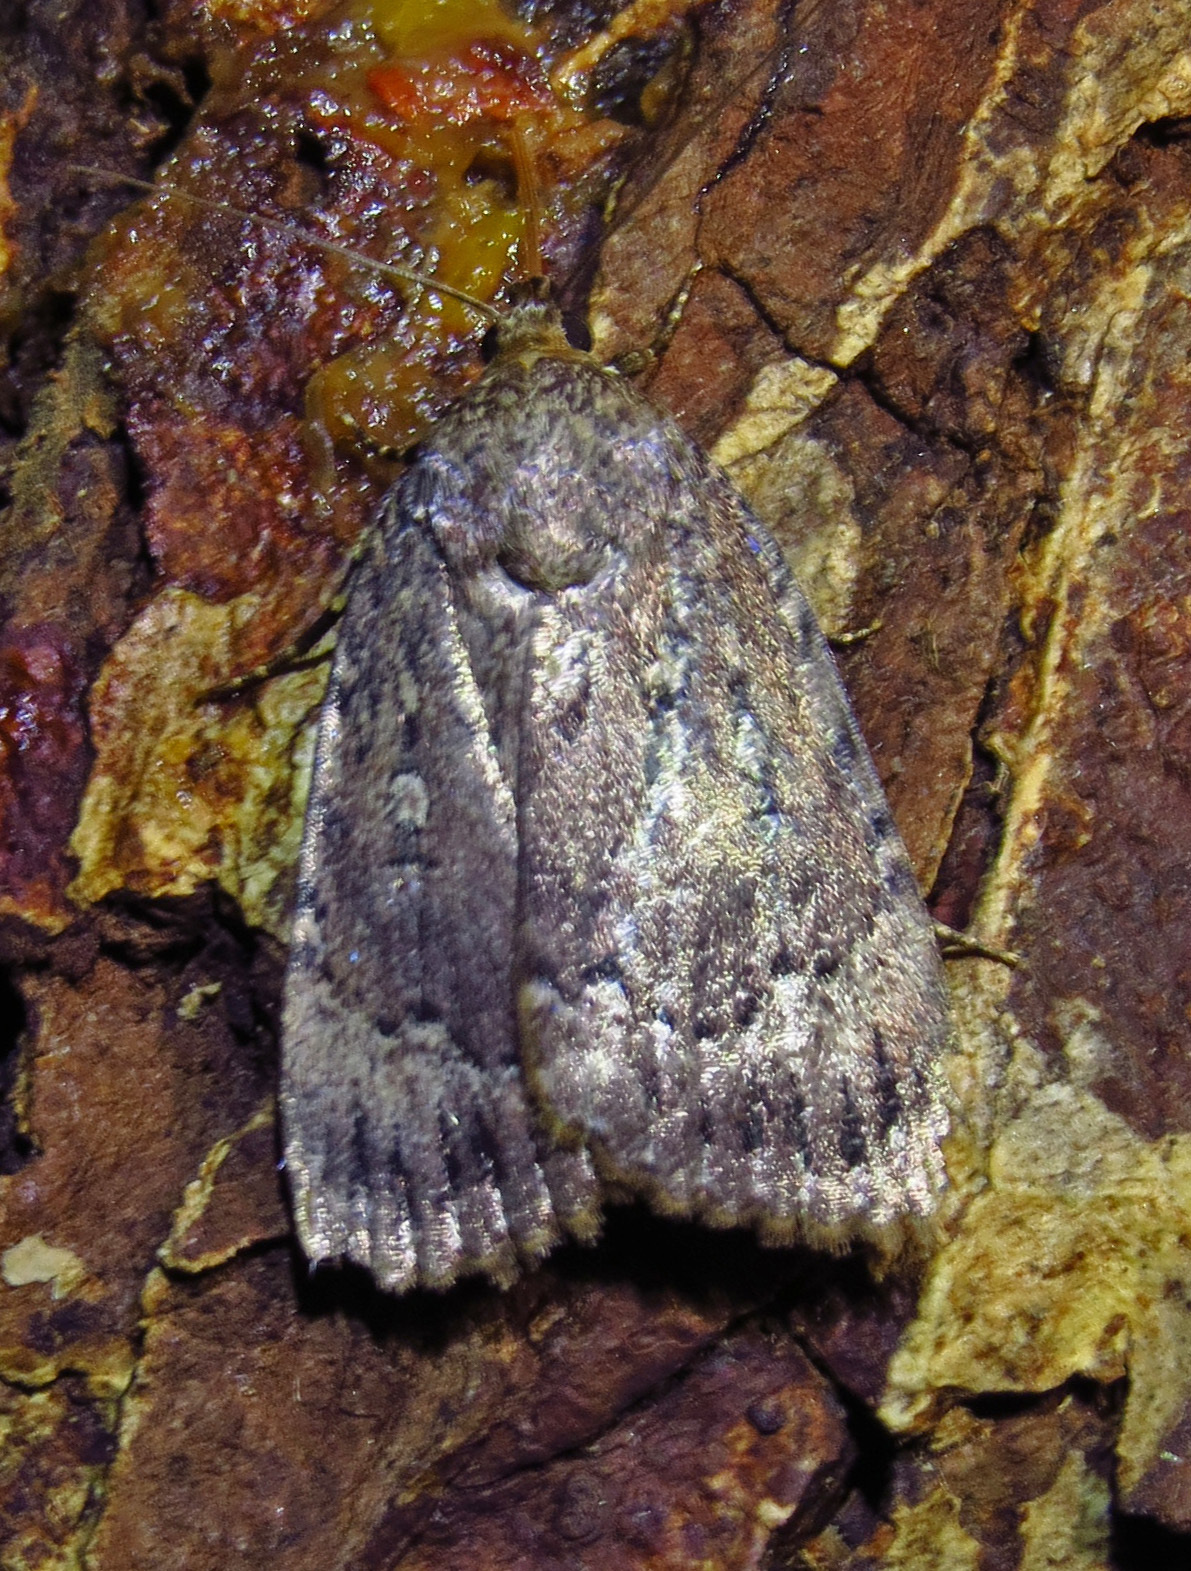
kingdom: Animalia
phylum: Arthropoda
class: Insecta
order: Lepidoptera
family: Noctuidae
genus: Amphipyra
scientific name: Amphipyra pyramidoides
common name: American copper underwing
